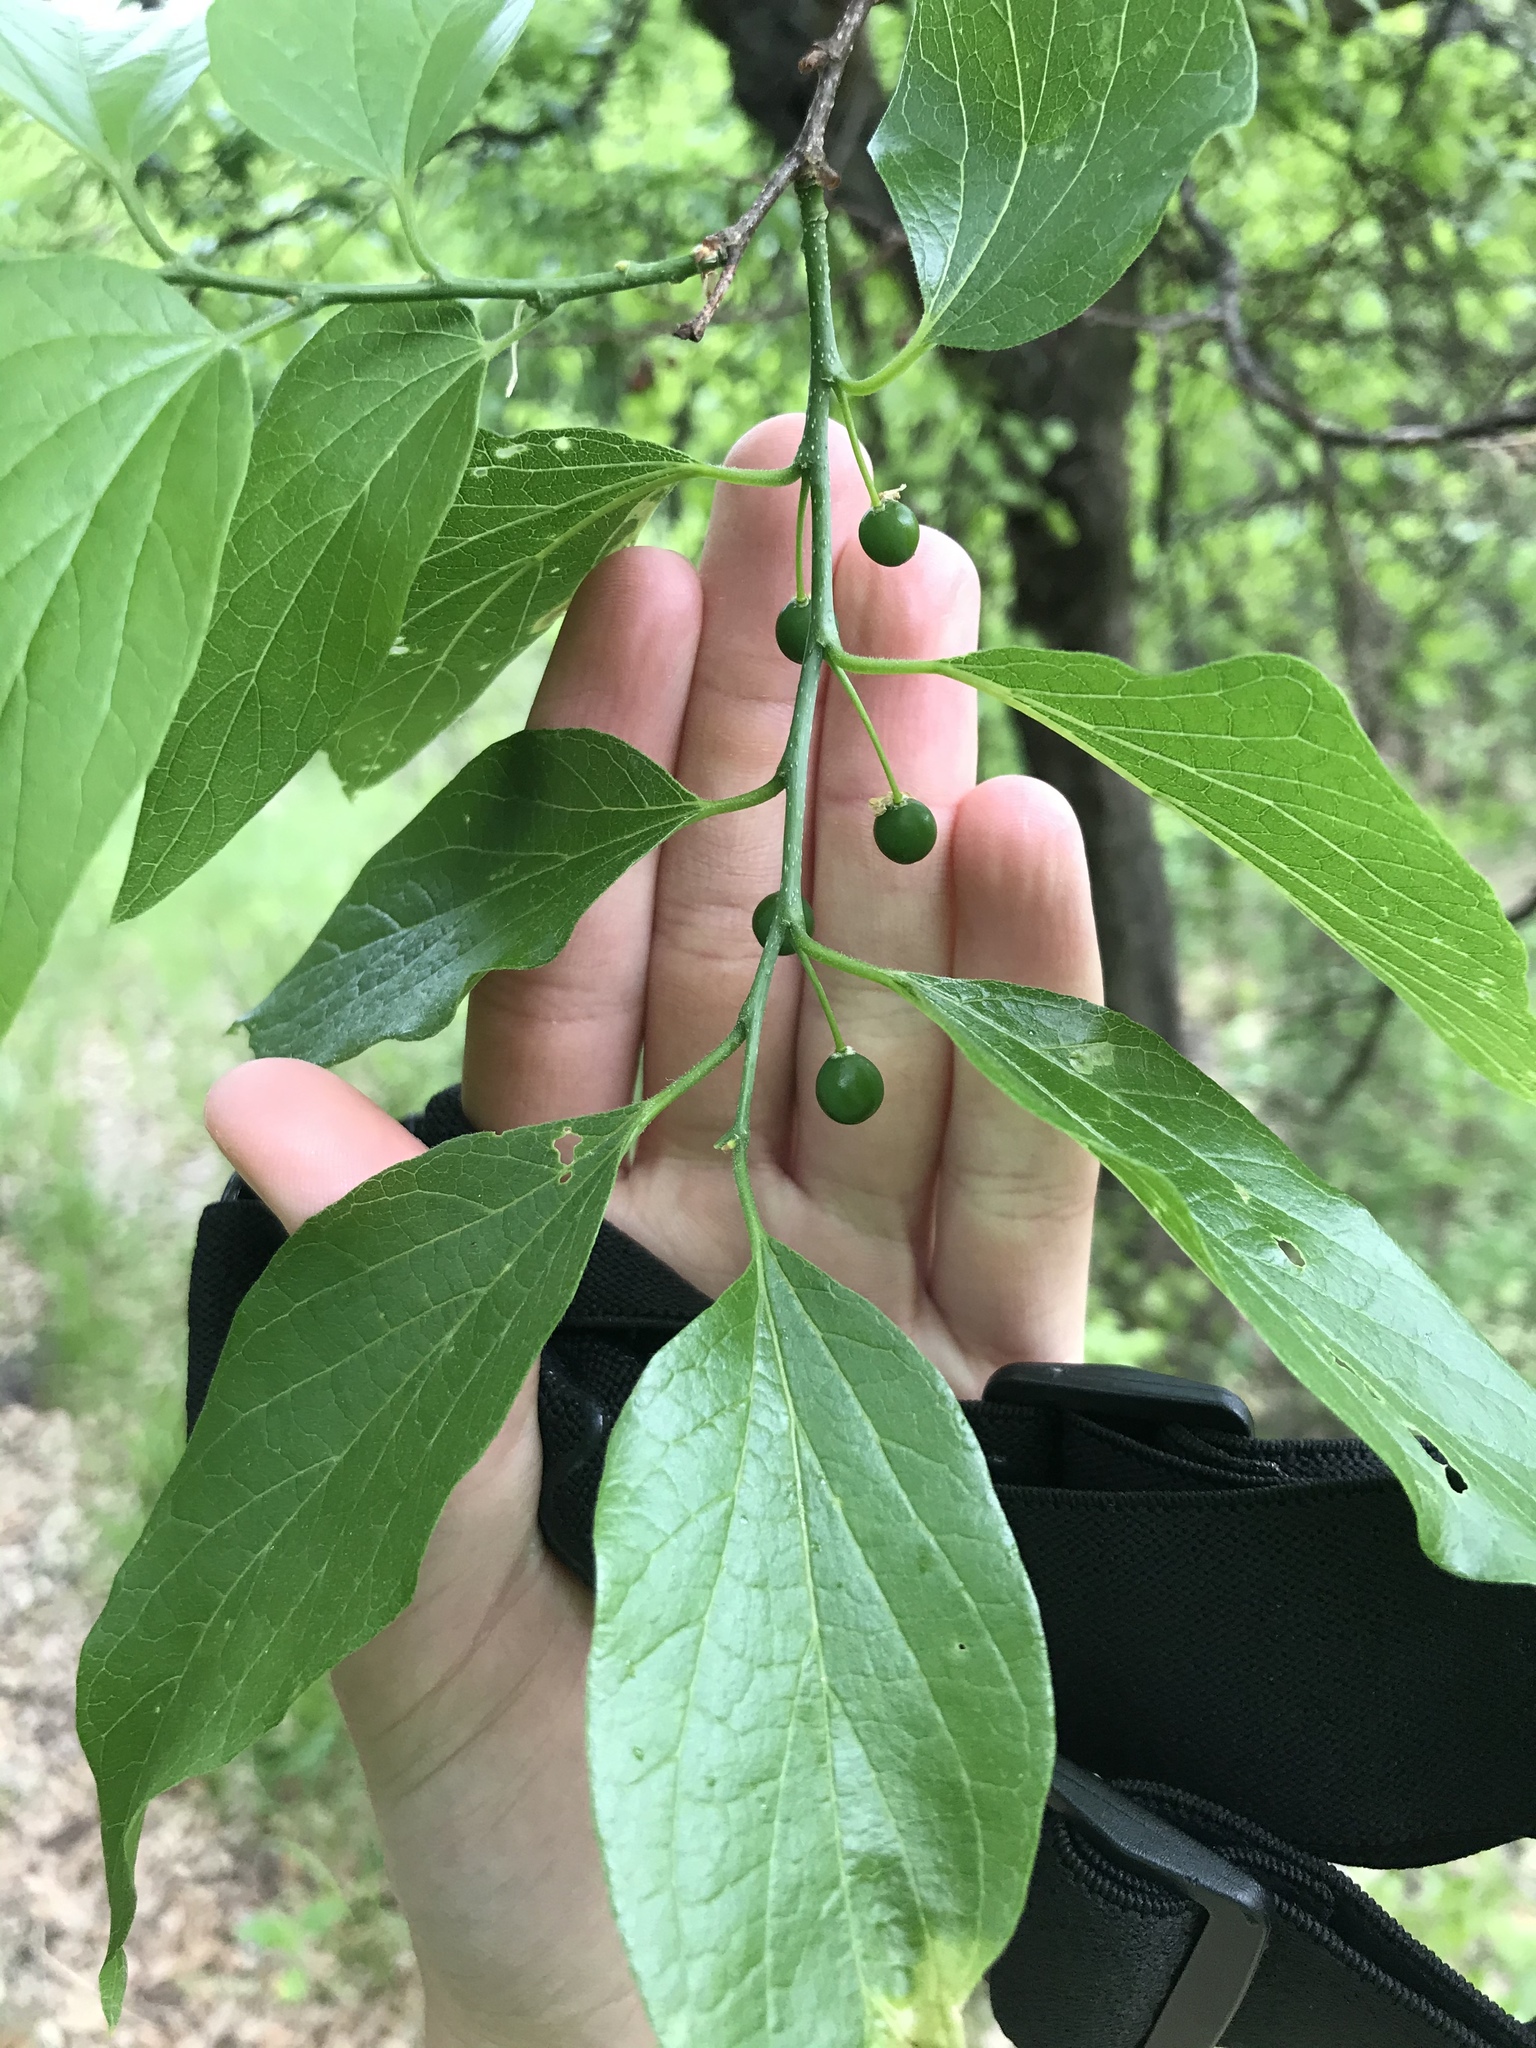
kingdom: Plantae
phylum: Tracheophyta
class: Magnoliopsida
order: Rosales
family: Cannabaceae
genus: Celtis
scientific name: Celtis laevigata
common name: Sugarberry
